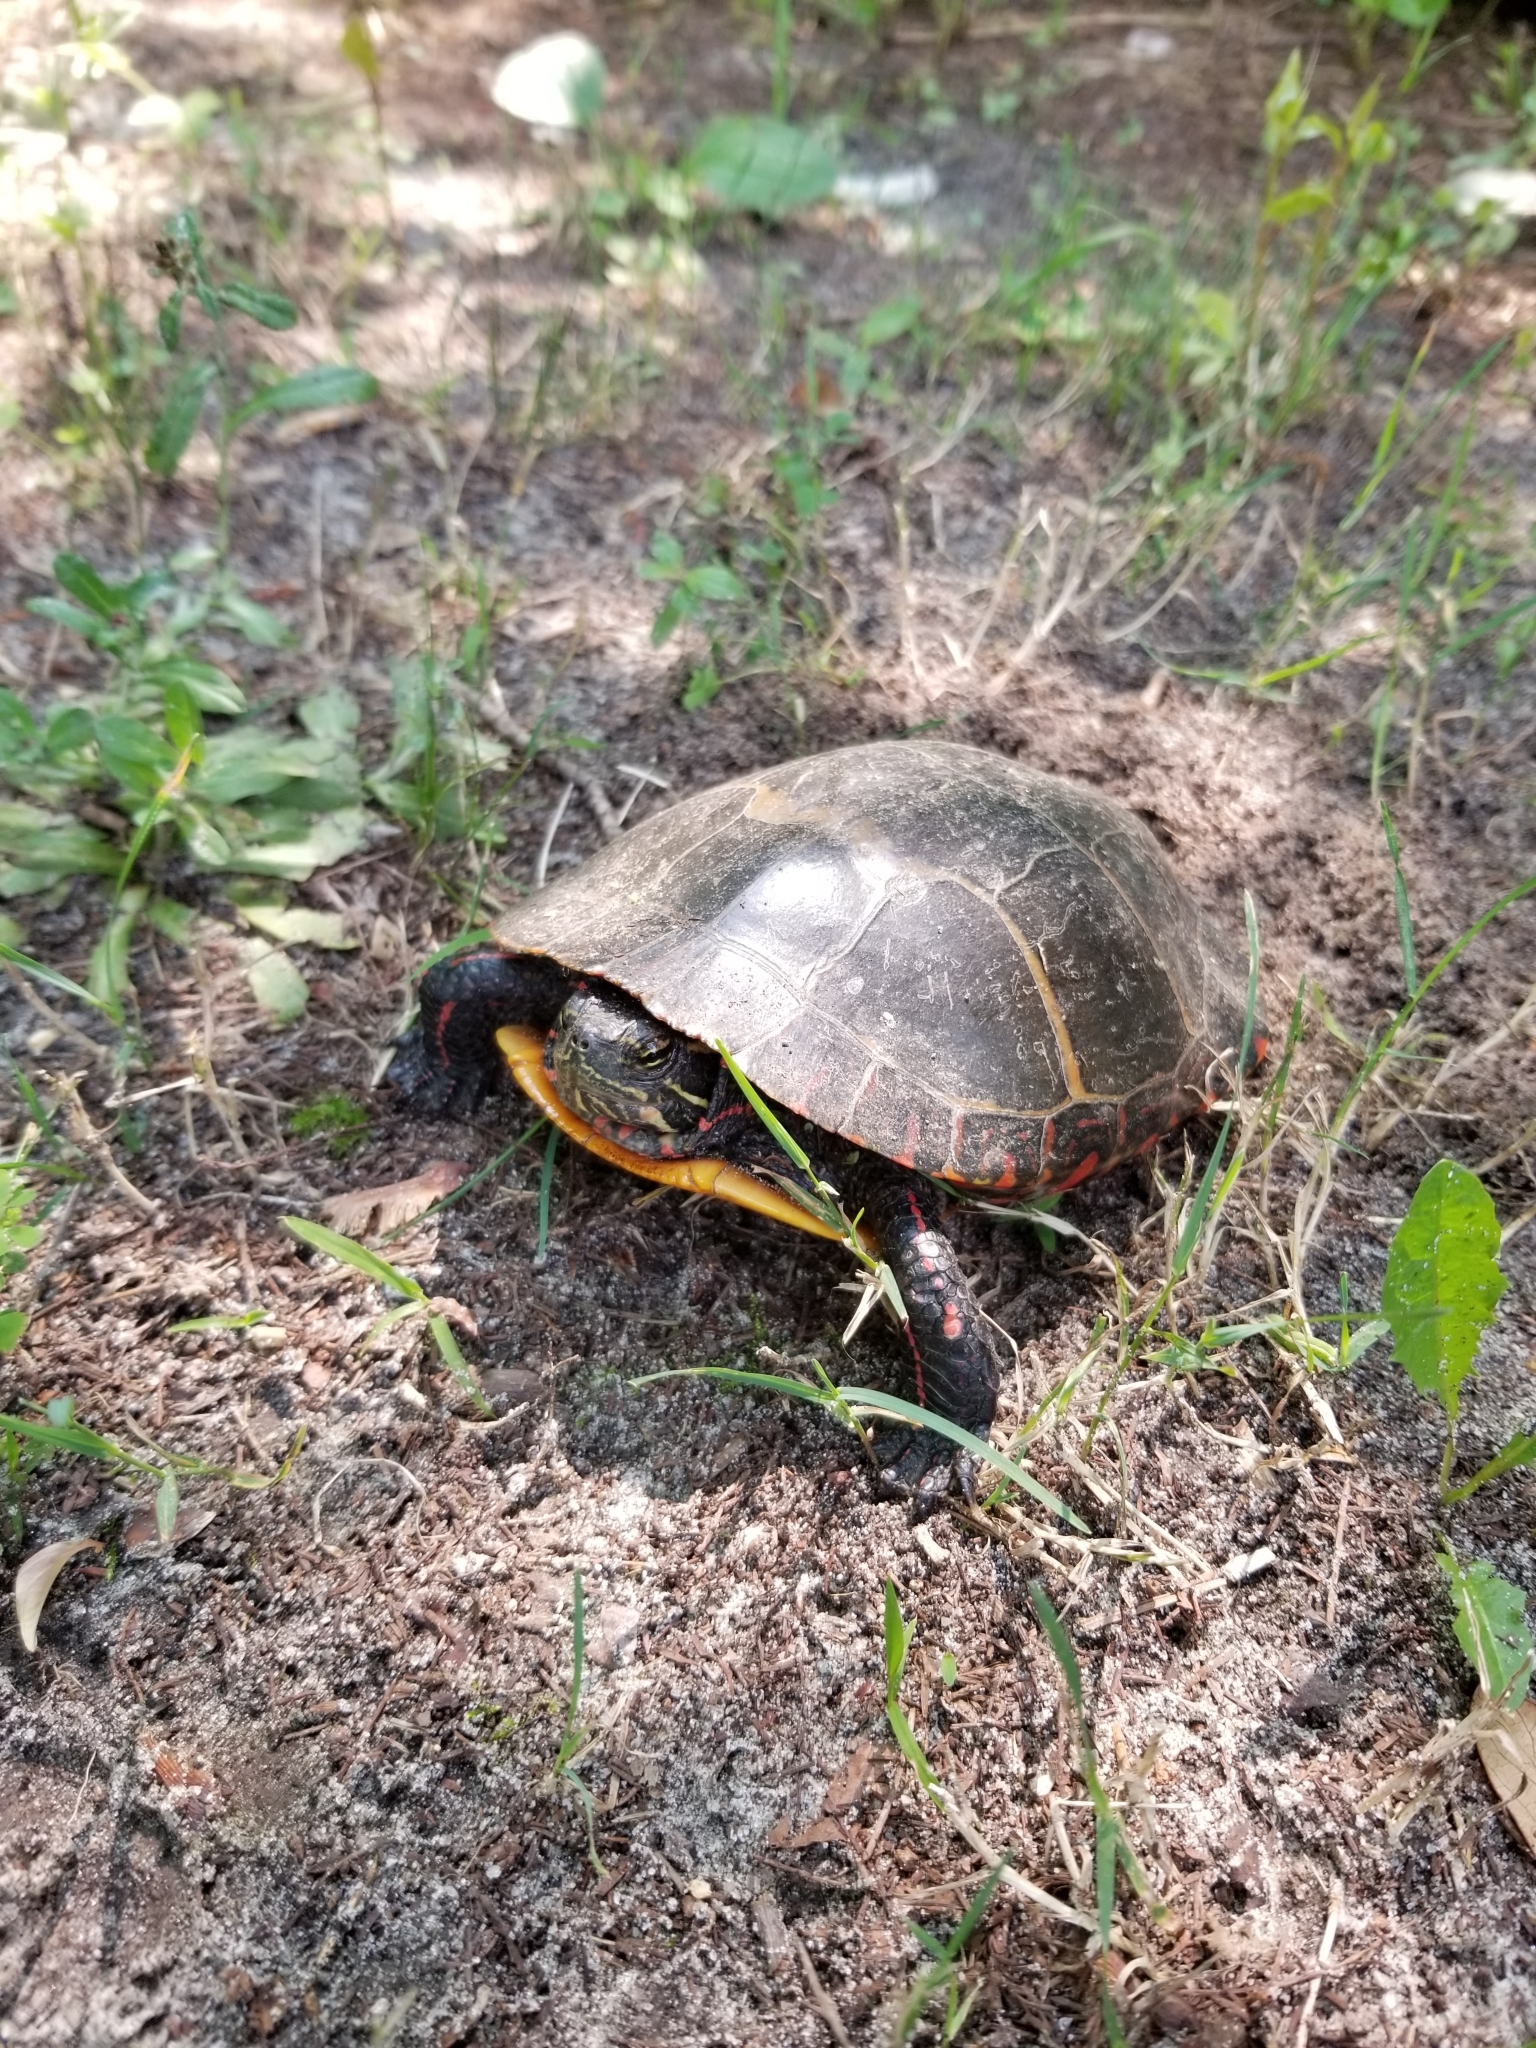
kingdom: Animalia
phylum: Chordata
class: Testudines
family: Emydidae
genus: Chrysemys
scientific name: Chrysemys picta
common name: Painted turtle
